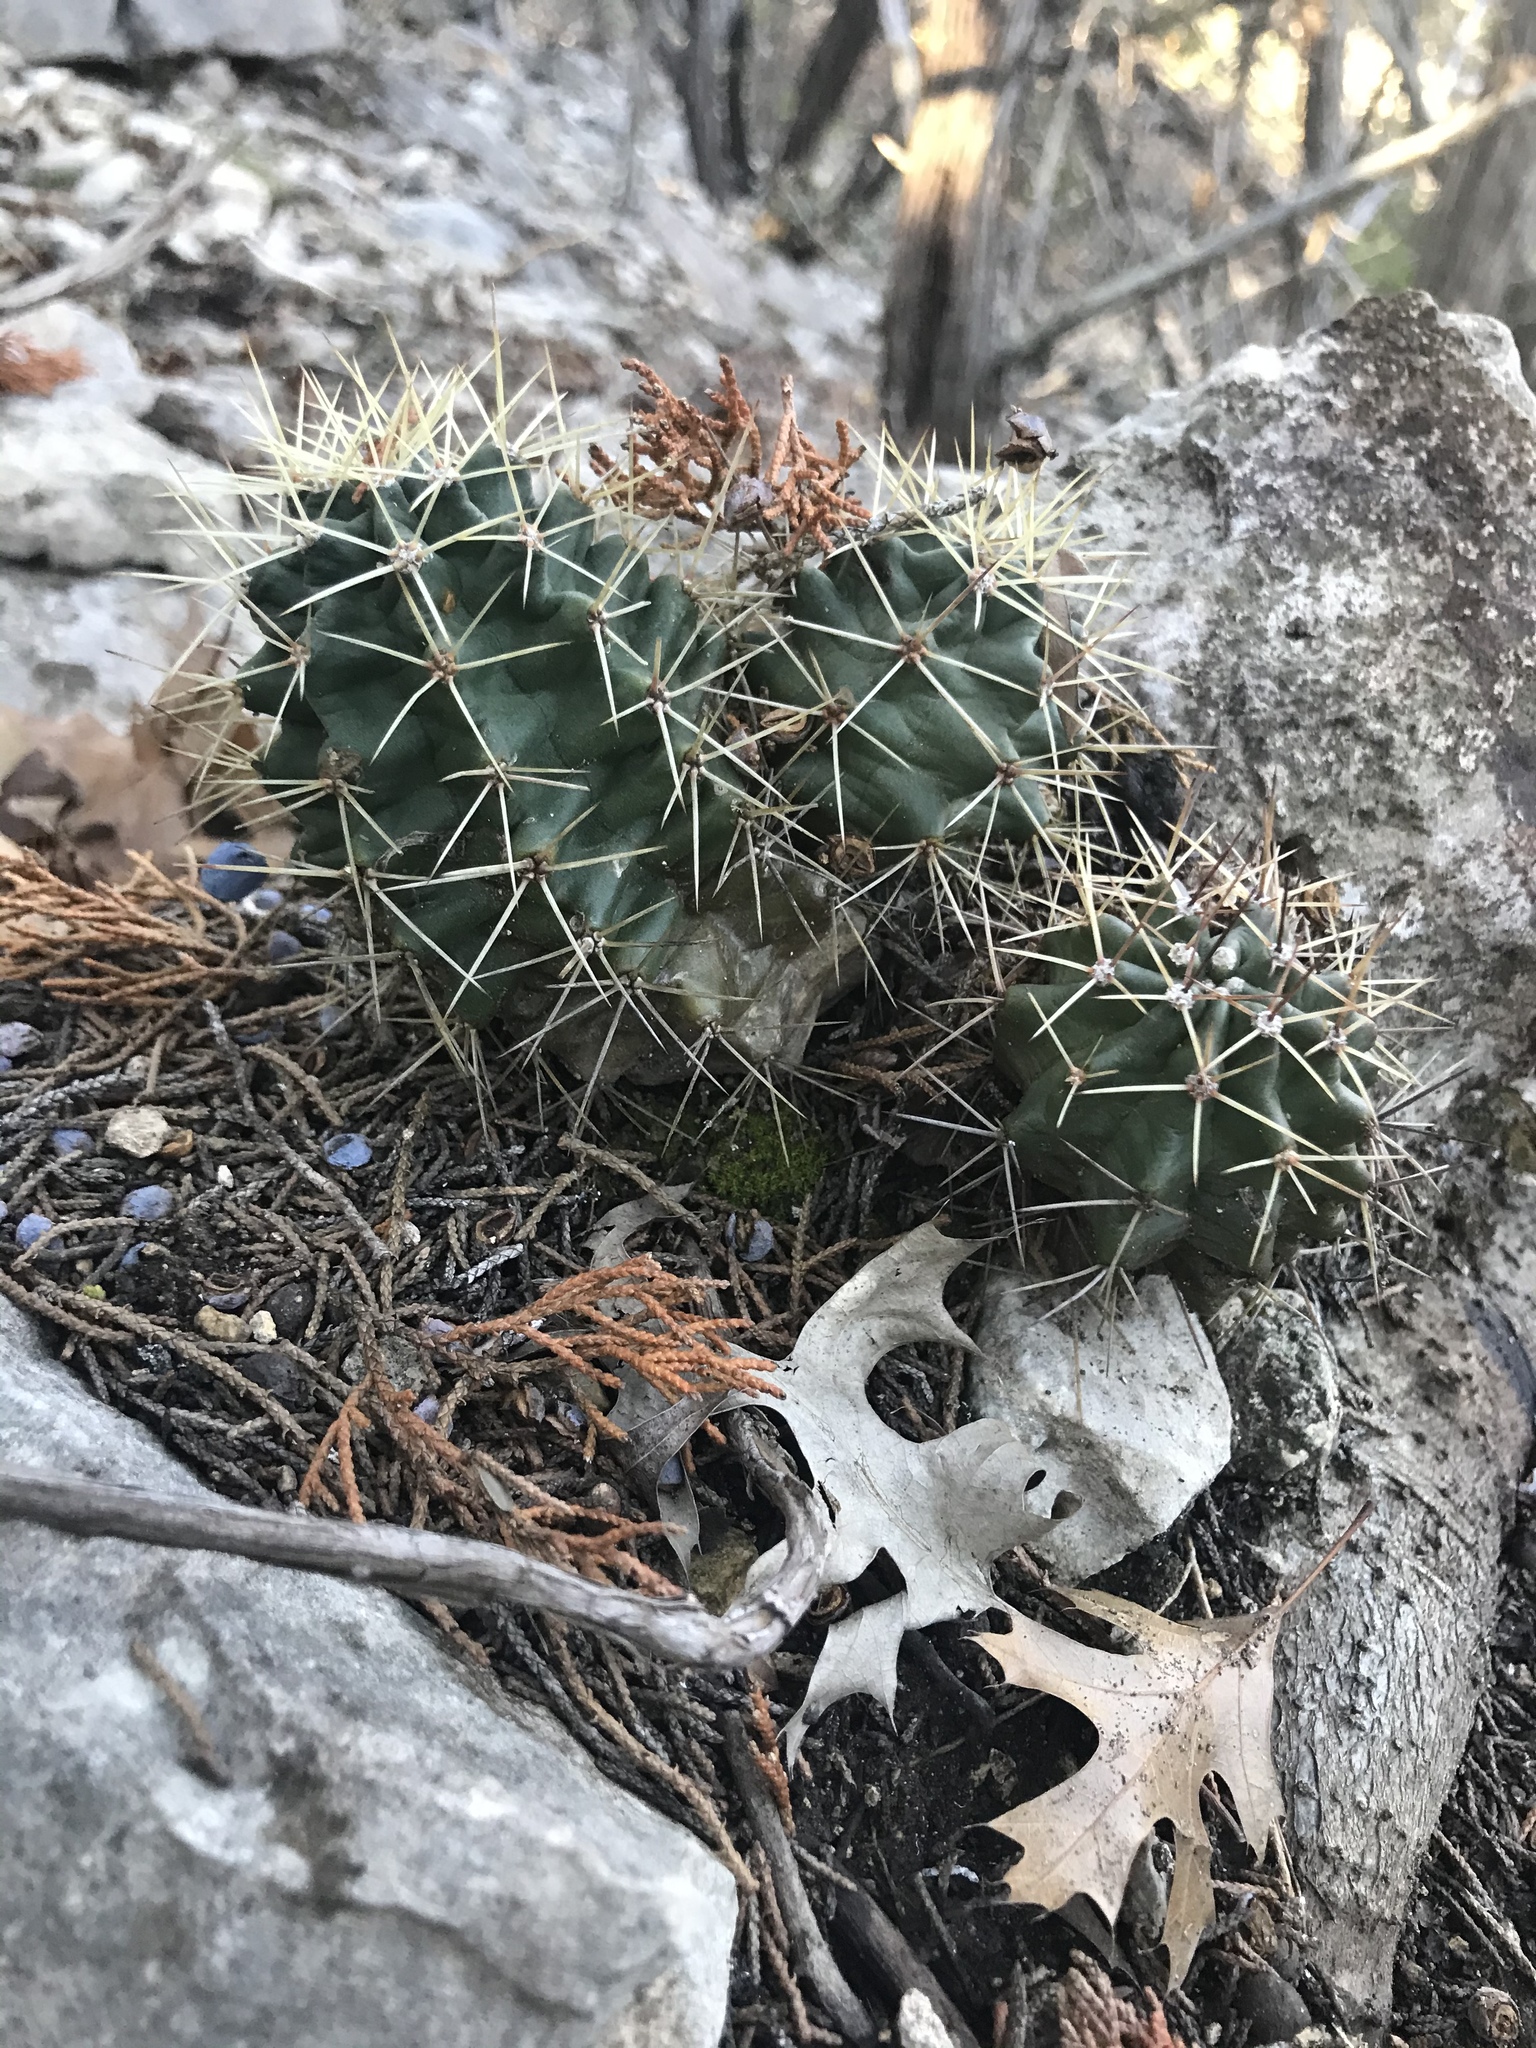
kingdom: Plantae
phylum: Tracheophyta
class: Magnoliopsida
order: Caryophyllales
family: Cactaceae
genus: Echinocereus
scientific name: Echinocereus coccineus
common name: Scarlet hedgehog cactus
